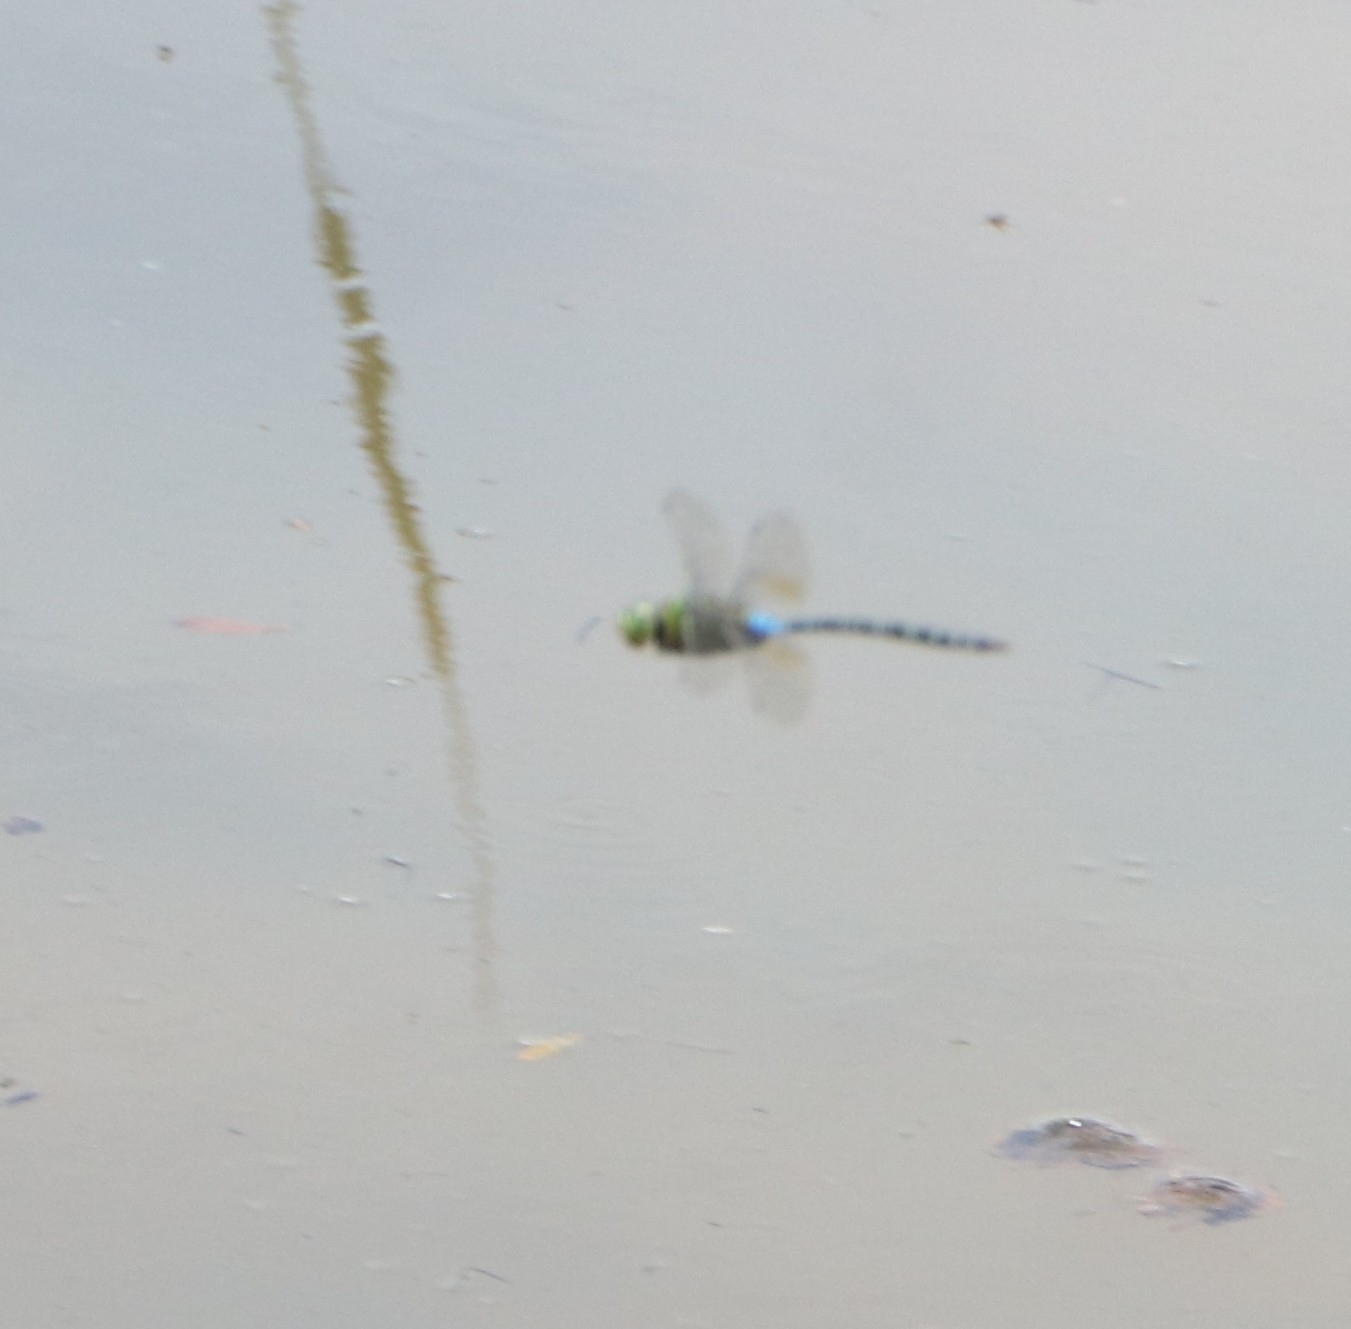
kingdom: Animalia
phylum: Arthropoda
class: Insecta
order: Odonata
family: Aeshnidae
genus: Anax
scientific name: Anax guttatus
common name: Emperor
